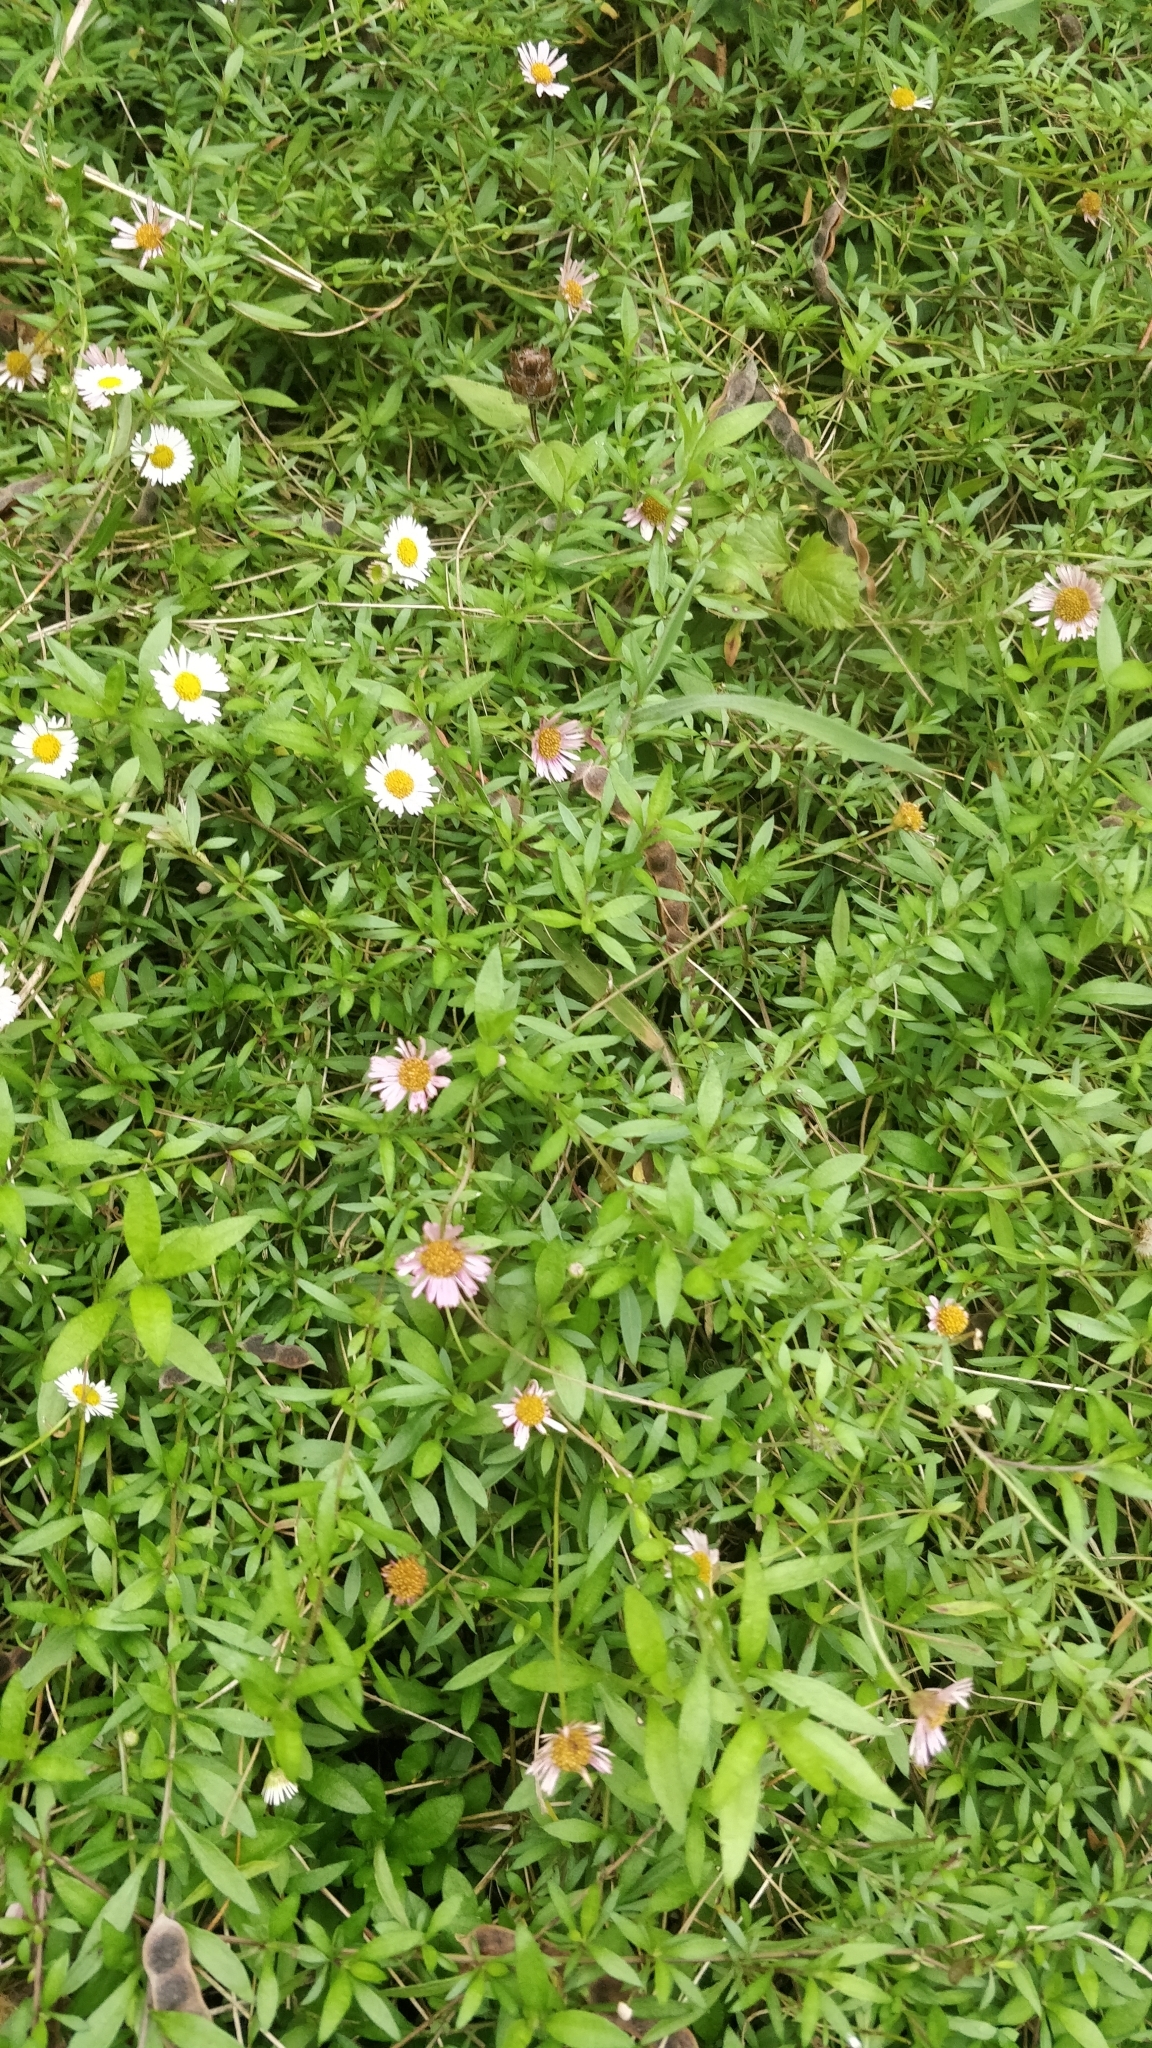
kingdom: Plantae
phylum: Tracheophyta
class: Magnoliopsida
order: Asterales
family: Asteraceae
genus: Erigeron
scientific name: Erigeron karvinskianus
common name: Mexican fleabane
